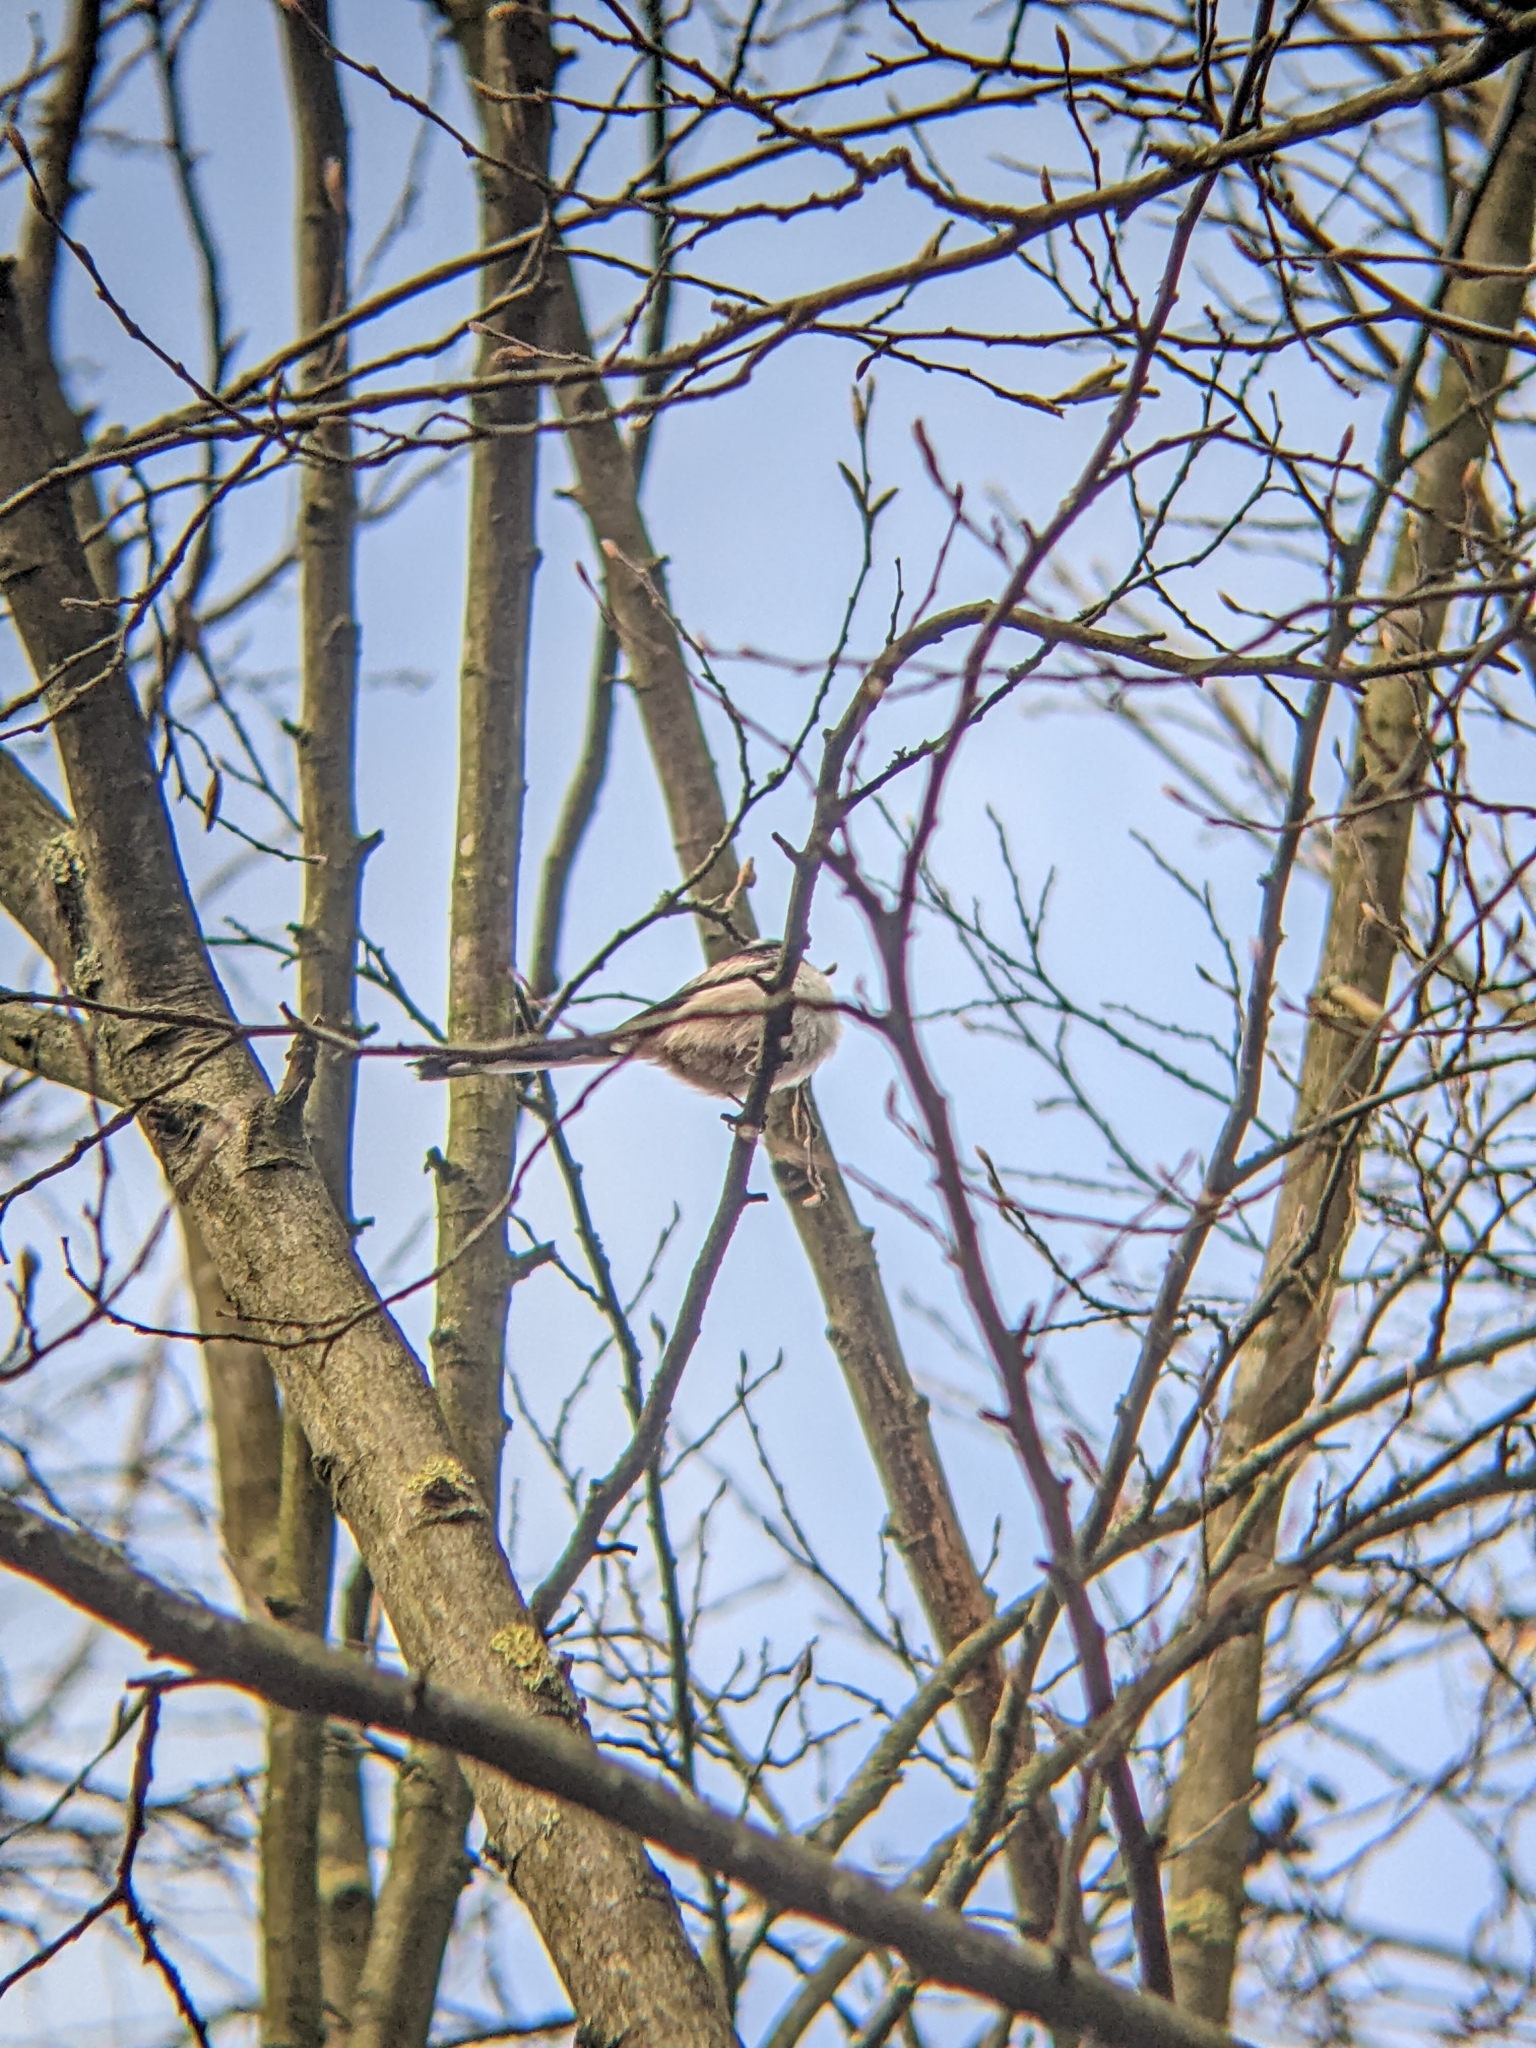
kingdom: Animalia
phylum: Chordata
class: Aves
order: Passeriformes
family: Aegithalidae
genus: Aegithalos
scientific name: Aegithalos caudatus
